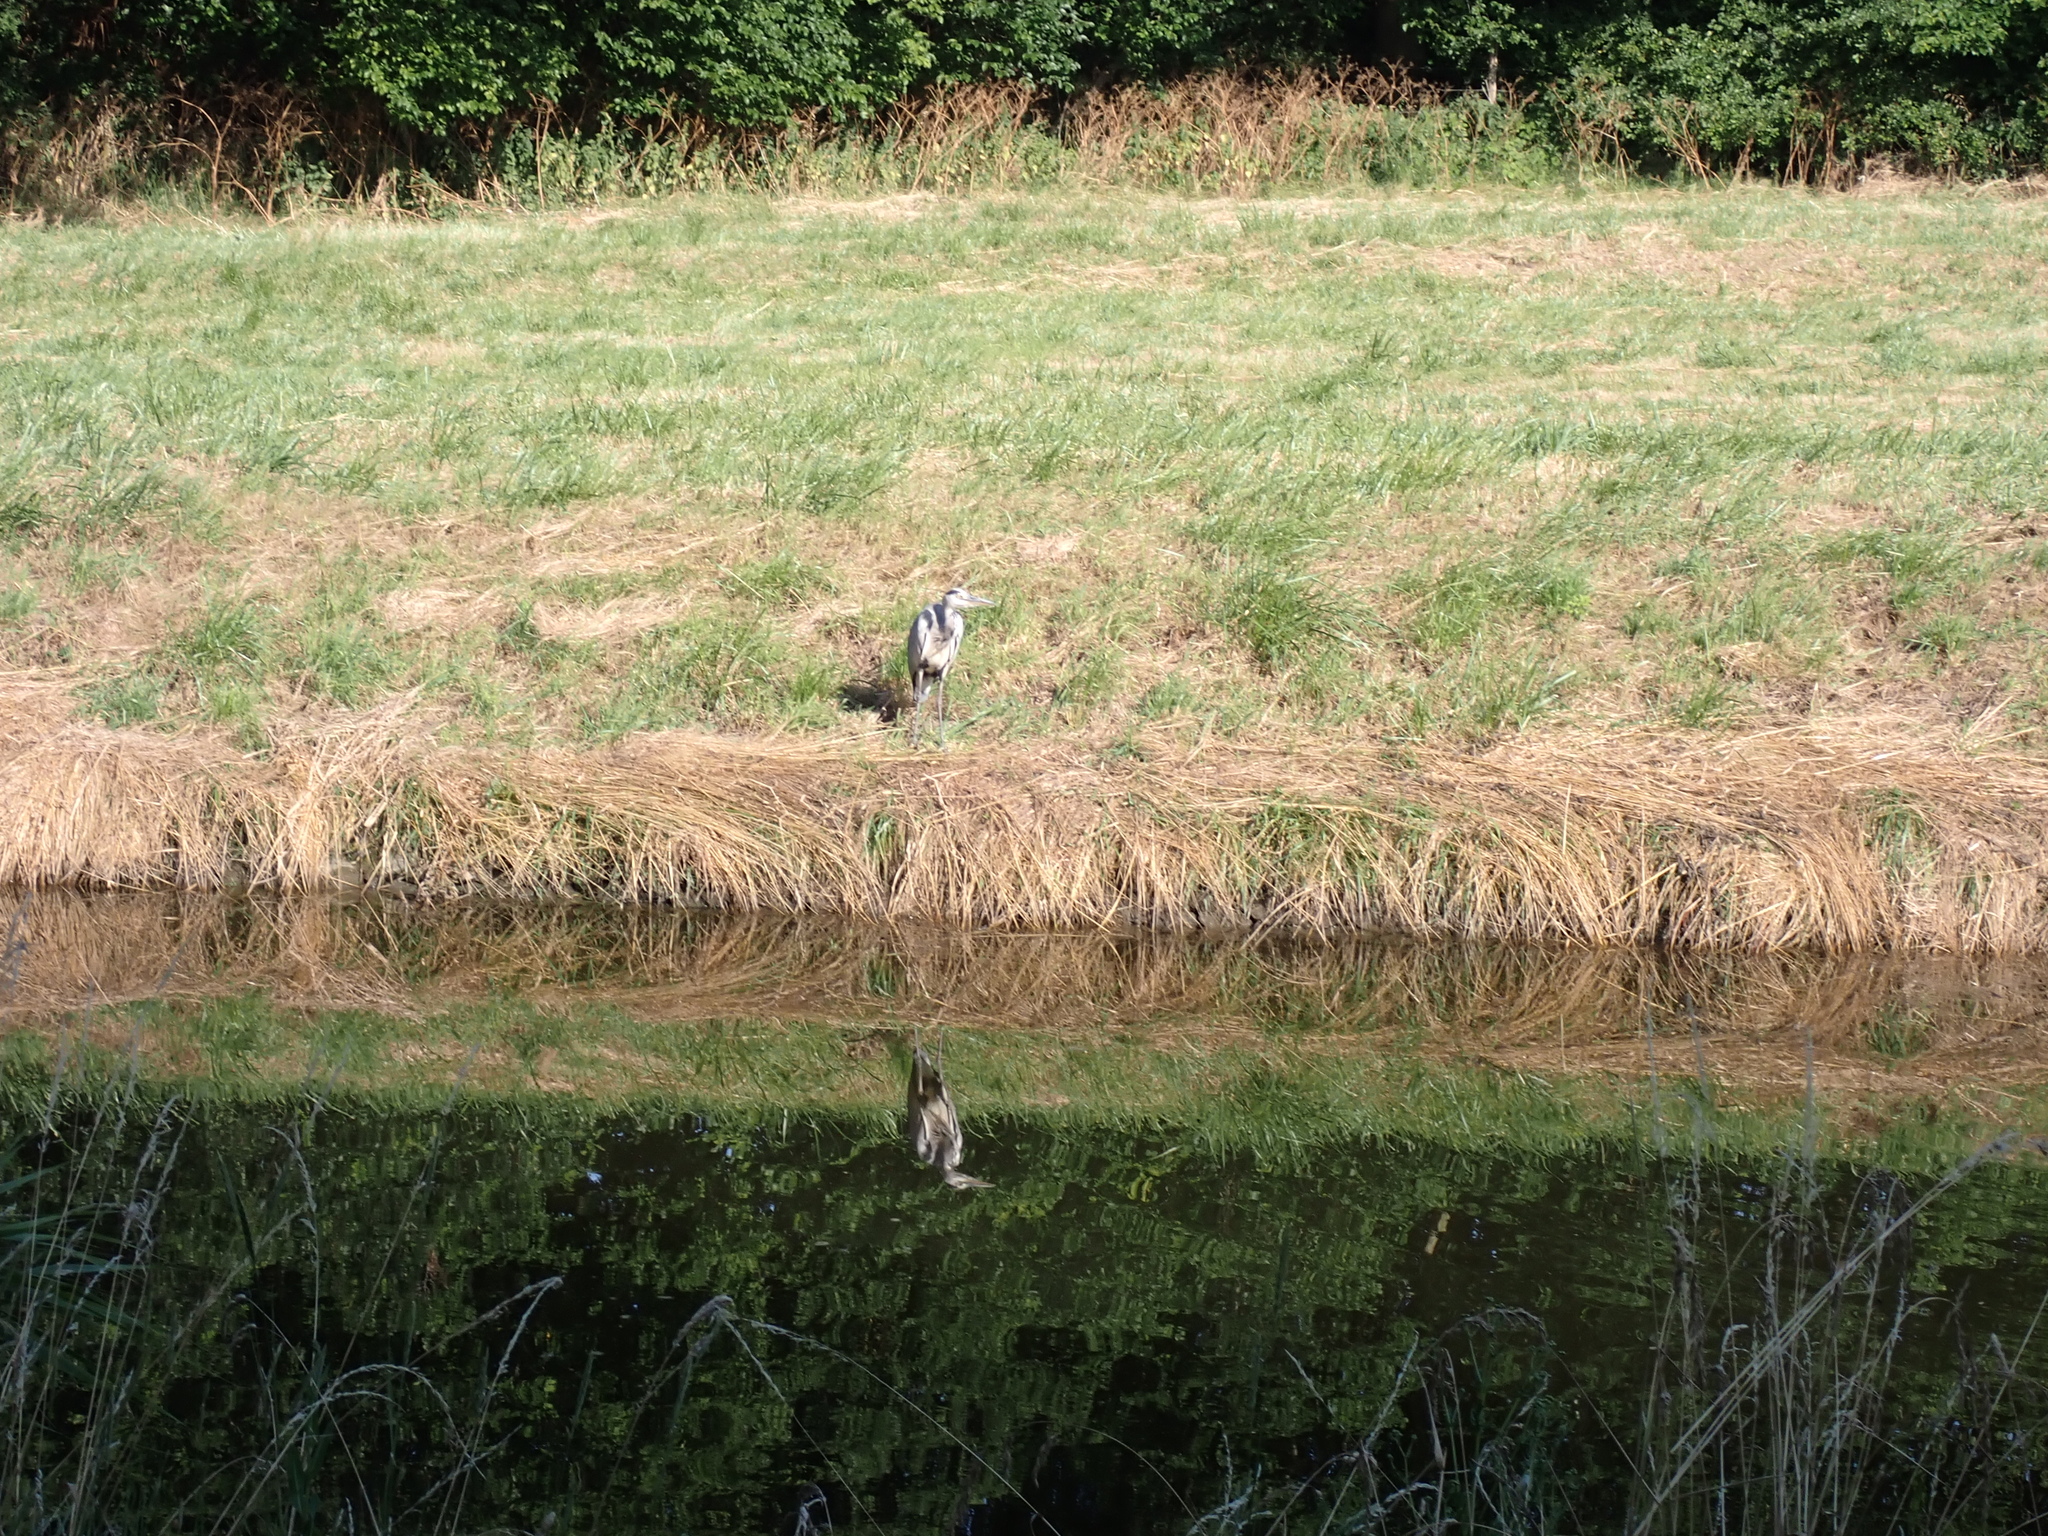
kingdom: Animalia
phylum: Chordata
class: Aves
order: Pelecaniformes
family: Ardeidae
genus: Ardea
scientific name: Ardea cinerea
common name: Grey heron
